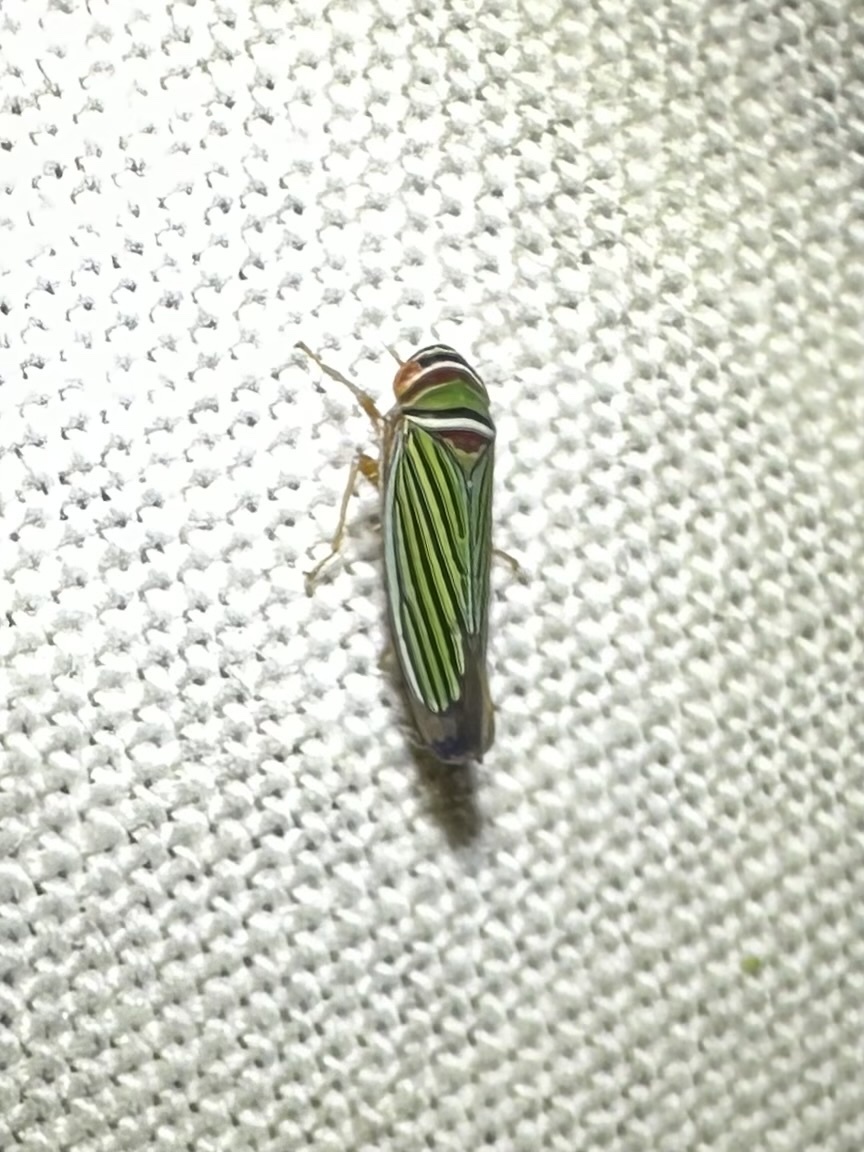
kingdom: Animalia
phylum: Arthropoda
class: Insecta
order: Hemiptera
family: Cicadellidae
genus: Tylozygus
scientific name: Tylozygus fuscolineellus
